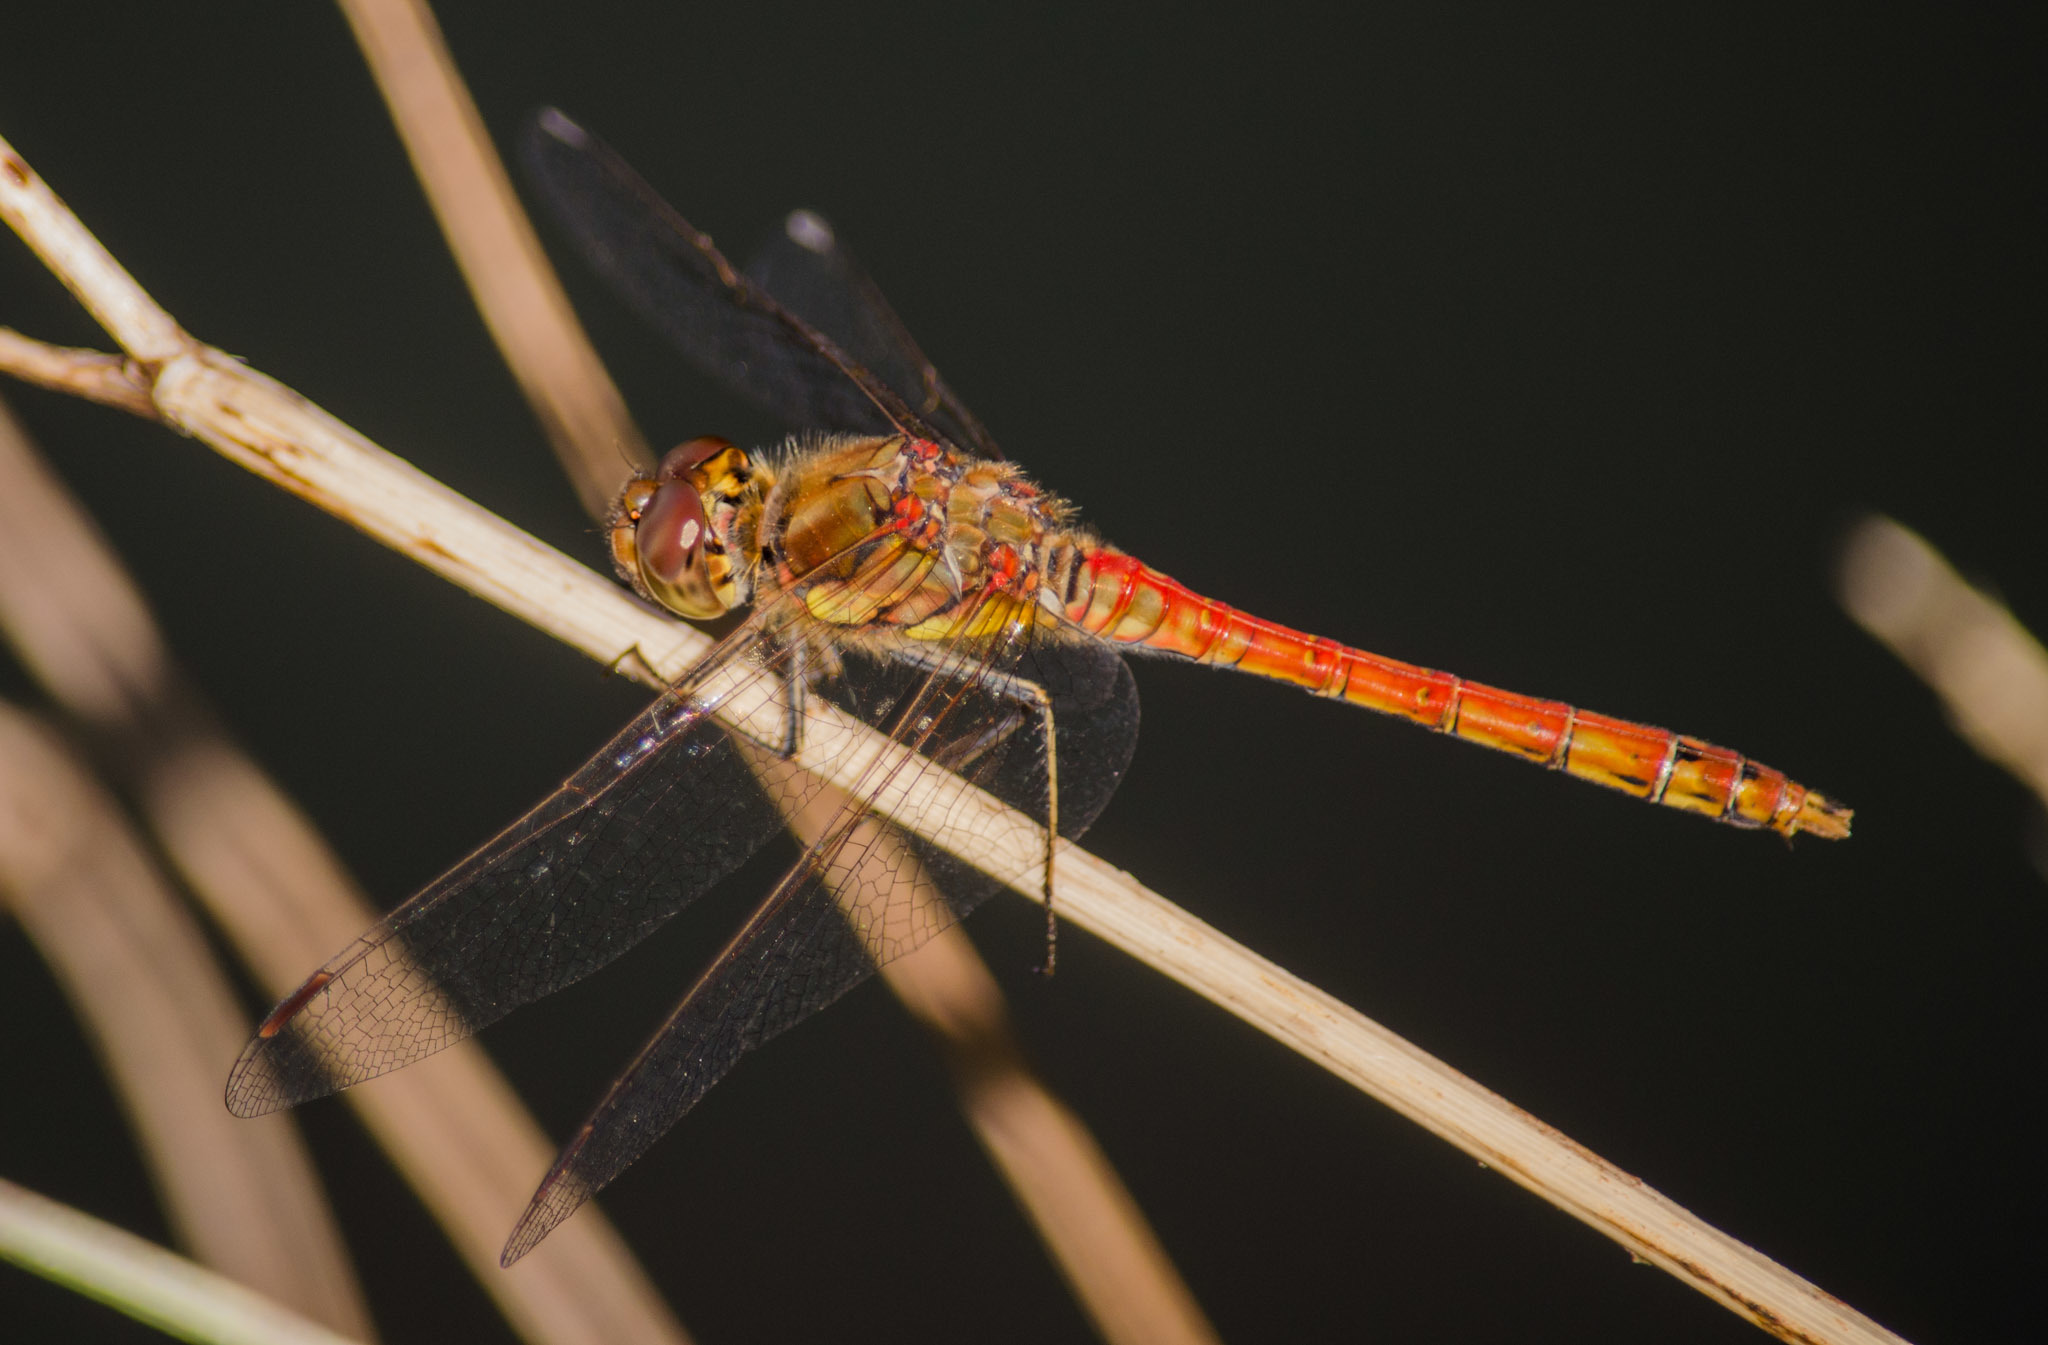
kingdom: Animalia
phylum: Arthropoda
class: Insecta
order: Odonata
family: Libellulidae
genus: Sympetrum
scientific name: Sympetrum striolatum
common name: Common darter
